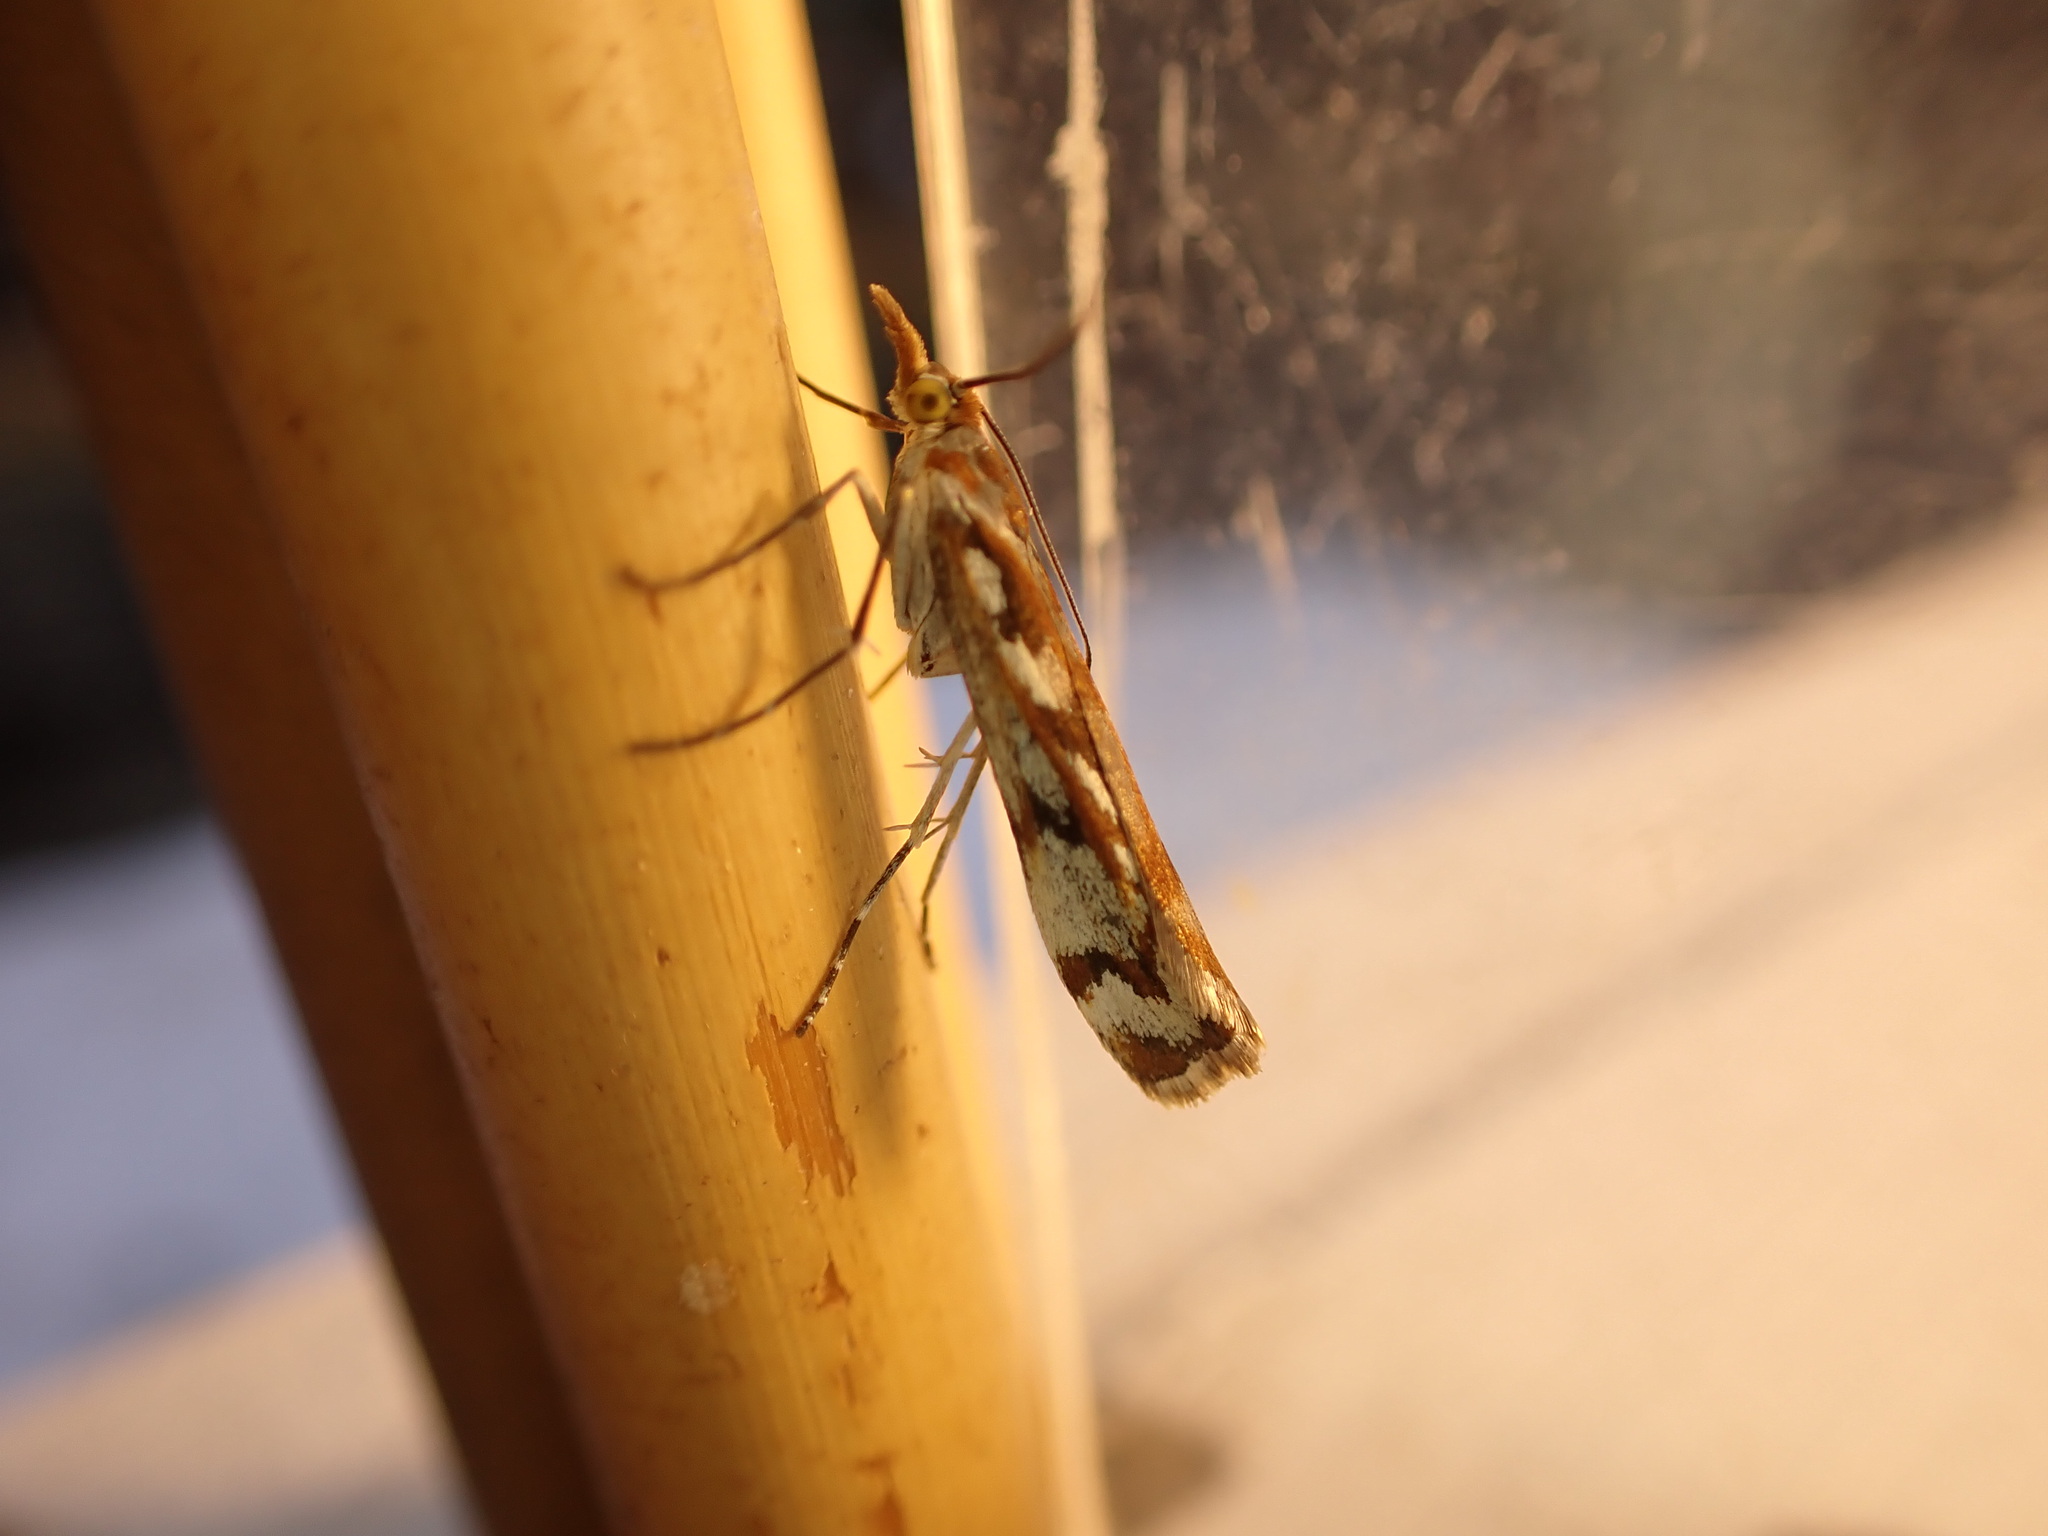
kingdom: Animalia
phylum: Arthropoda
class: Insecta
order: Lepidoptera
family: Crambidae
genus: Orocrambus
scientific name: Orocrambus xanthogrammus
